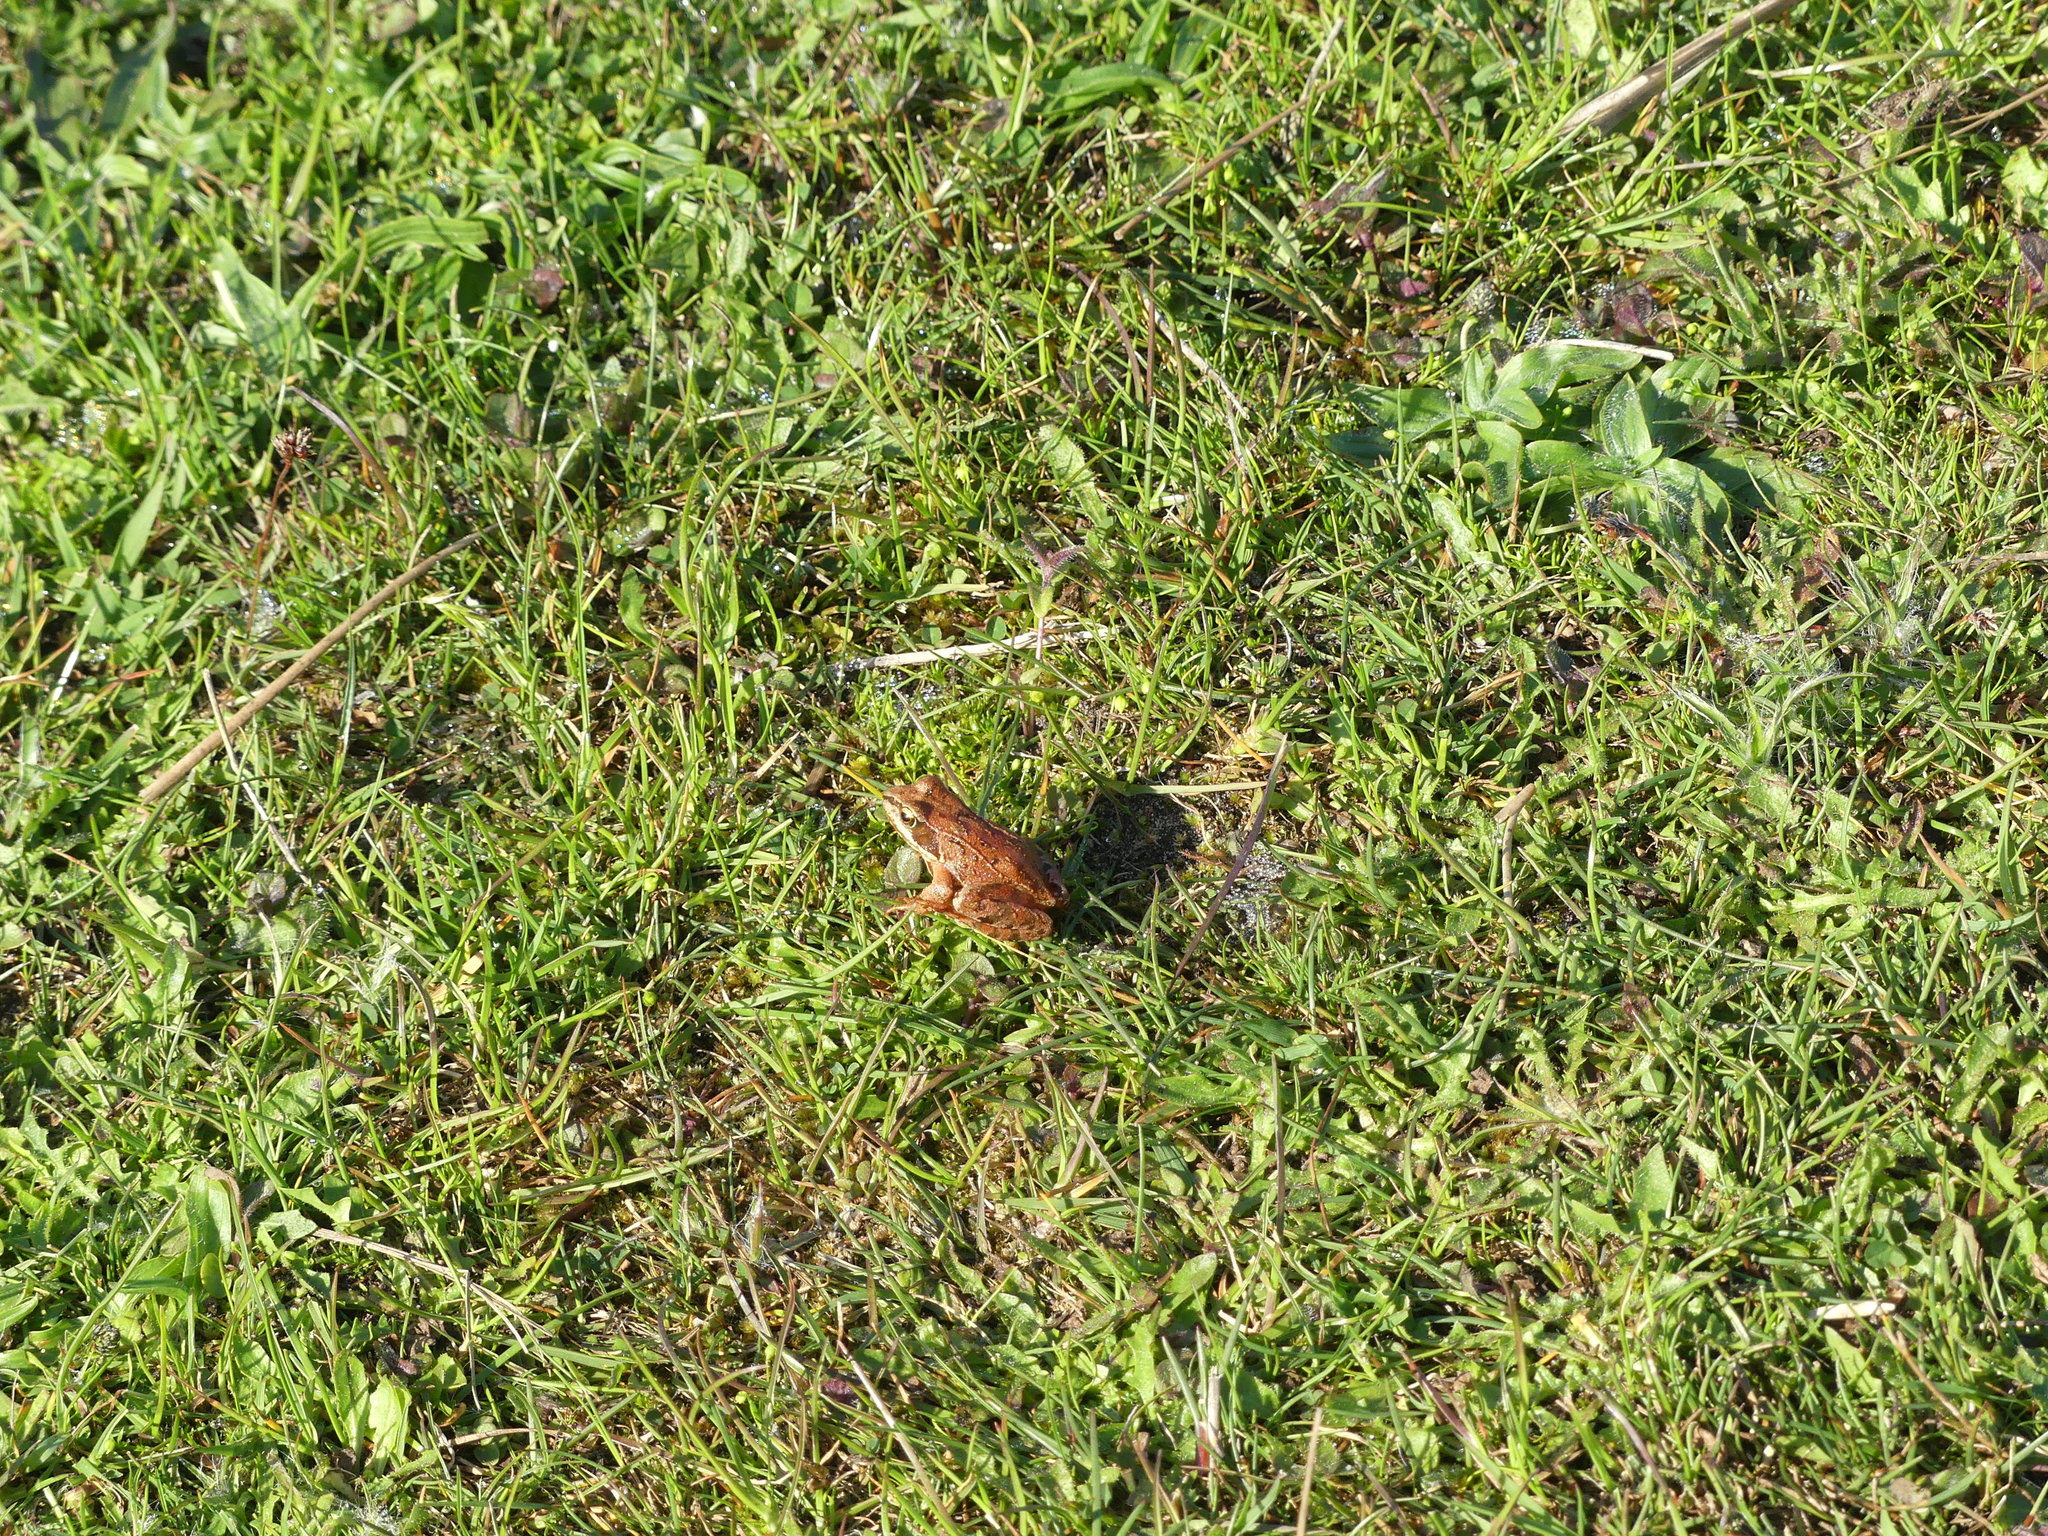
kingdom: Animalia
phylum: Chordata
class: Amphibia
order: Anura
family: Ranidae
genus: Rana
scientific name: Rana temporaria
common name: Common frog
